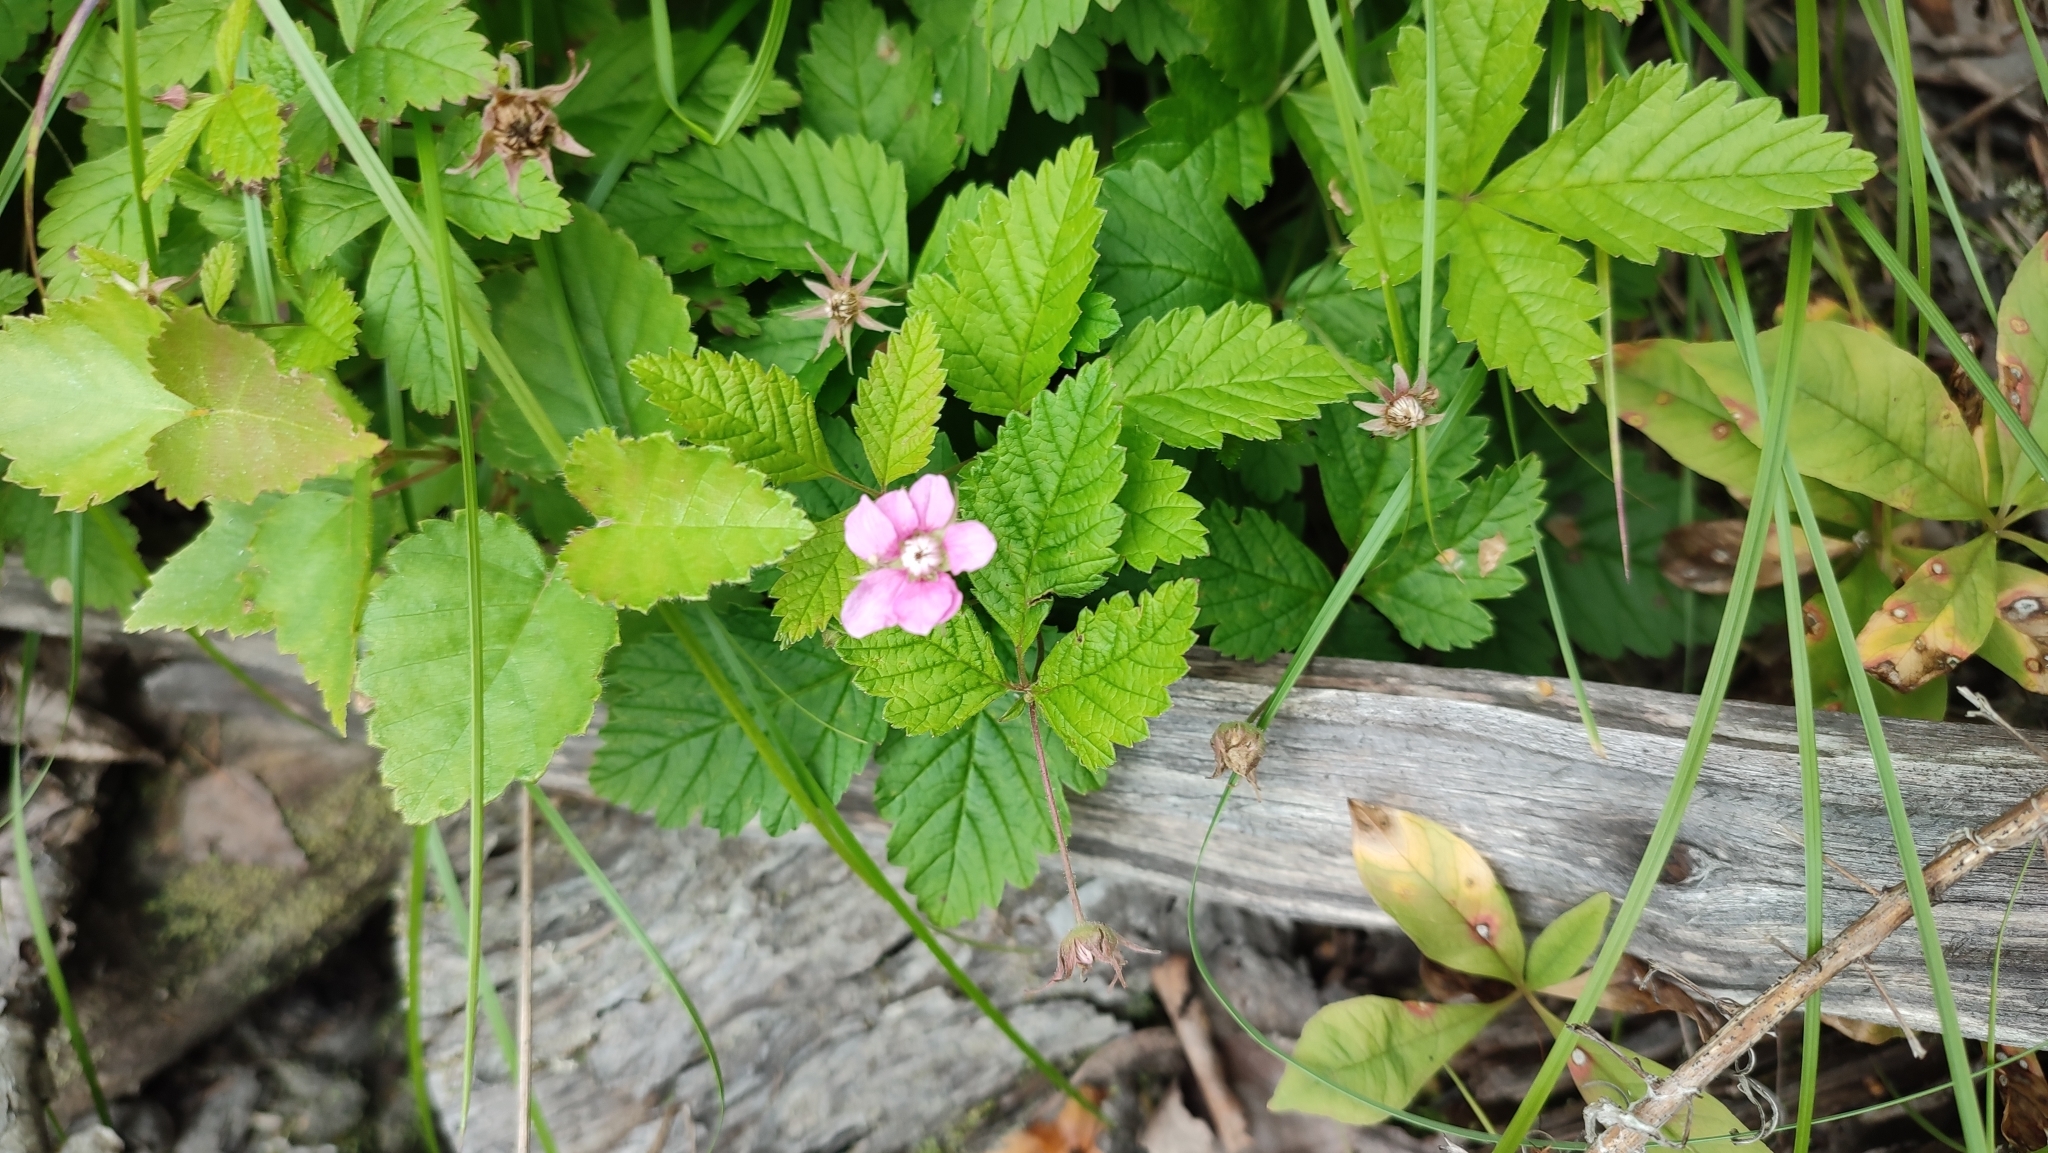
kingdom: Plantae
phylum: Tracheophyta
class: Magnoliopsida
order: Rosales
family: Rosaceae
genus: Rubus
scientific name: Rubus arcticus
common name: Arctic bramble
